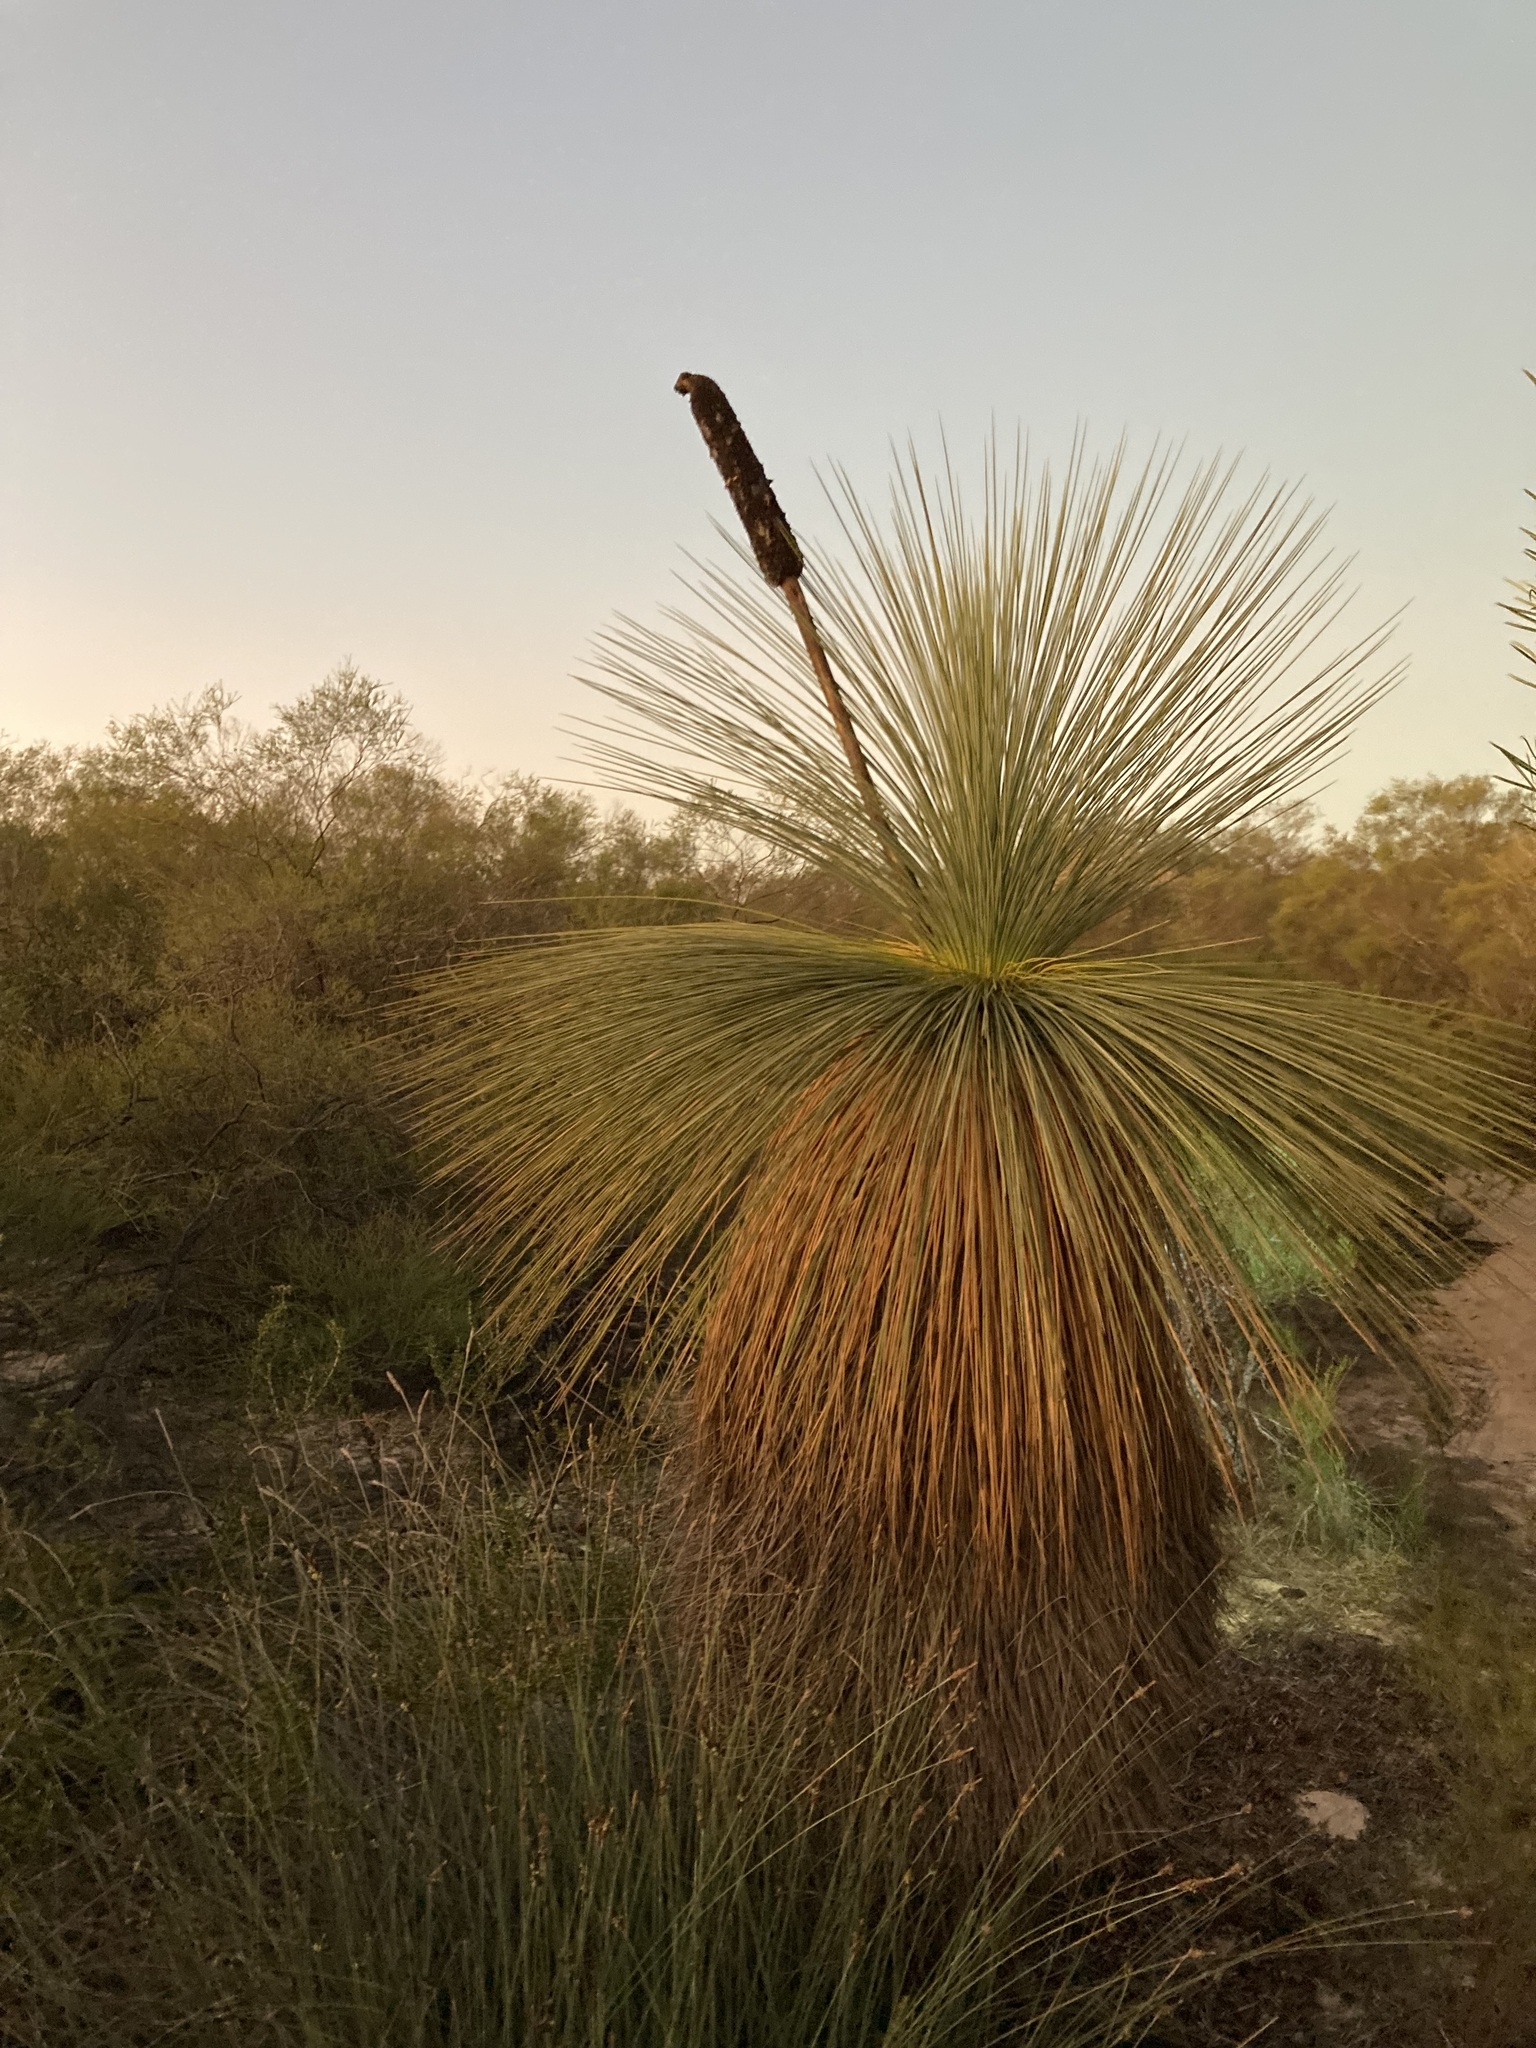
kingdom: Plantae
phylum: Tracheophyta
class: Liliopsida
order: Asparagales
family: Asphodelaceae
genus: Xanthorrhoea
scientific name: Xanthorrhoea drummondii
